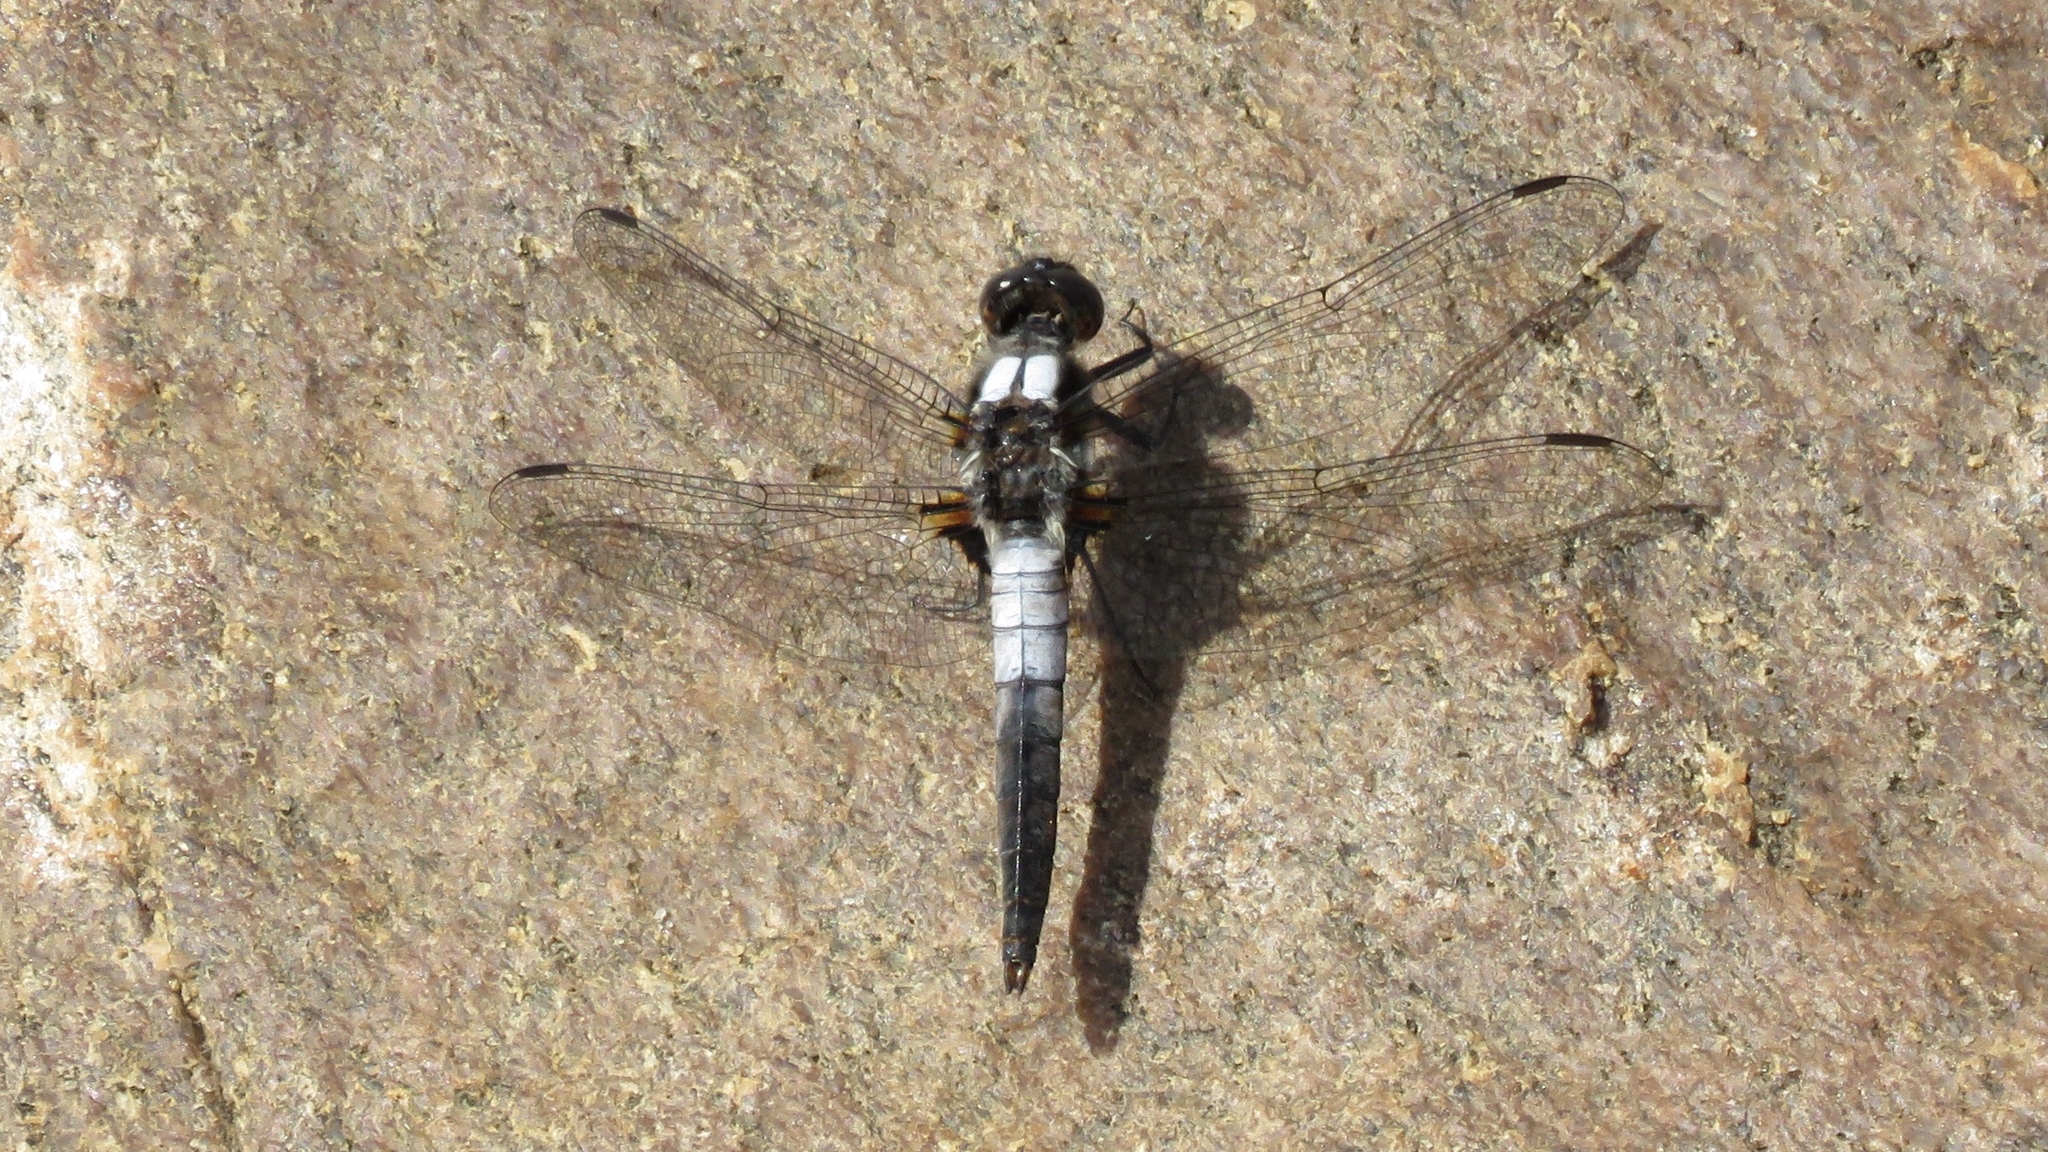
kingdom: Animalia
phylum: Arthropoda
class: Insecta
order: Odonata
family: Libellulidae
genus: Ladona
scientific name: Ladona julia
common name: Chalk-fronted corporal
